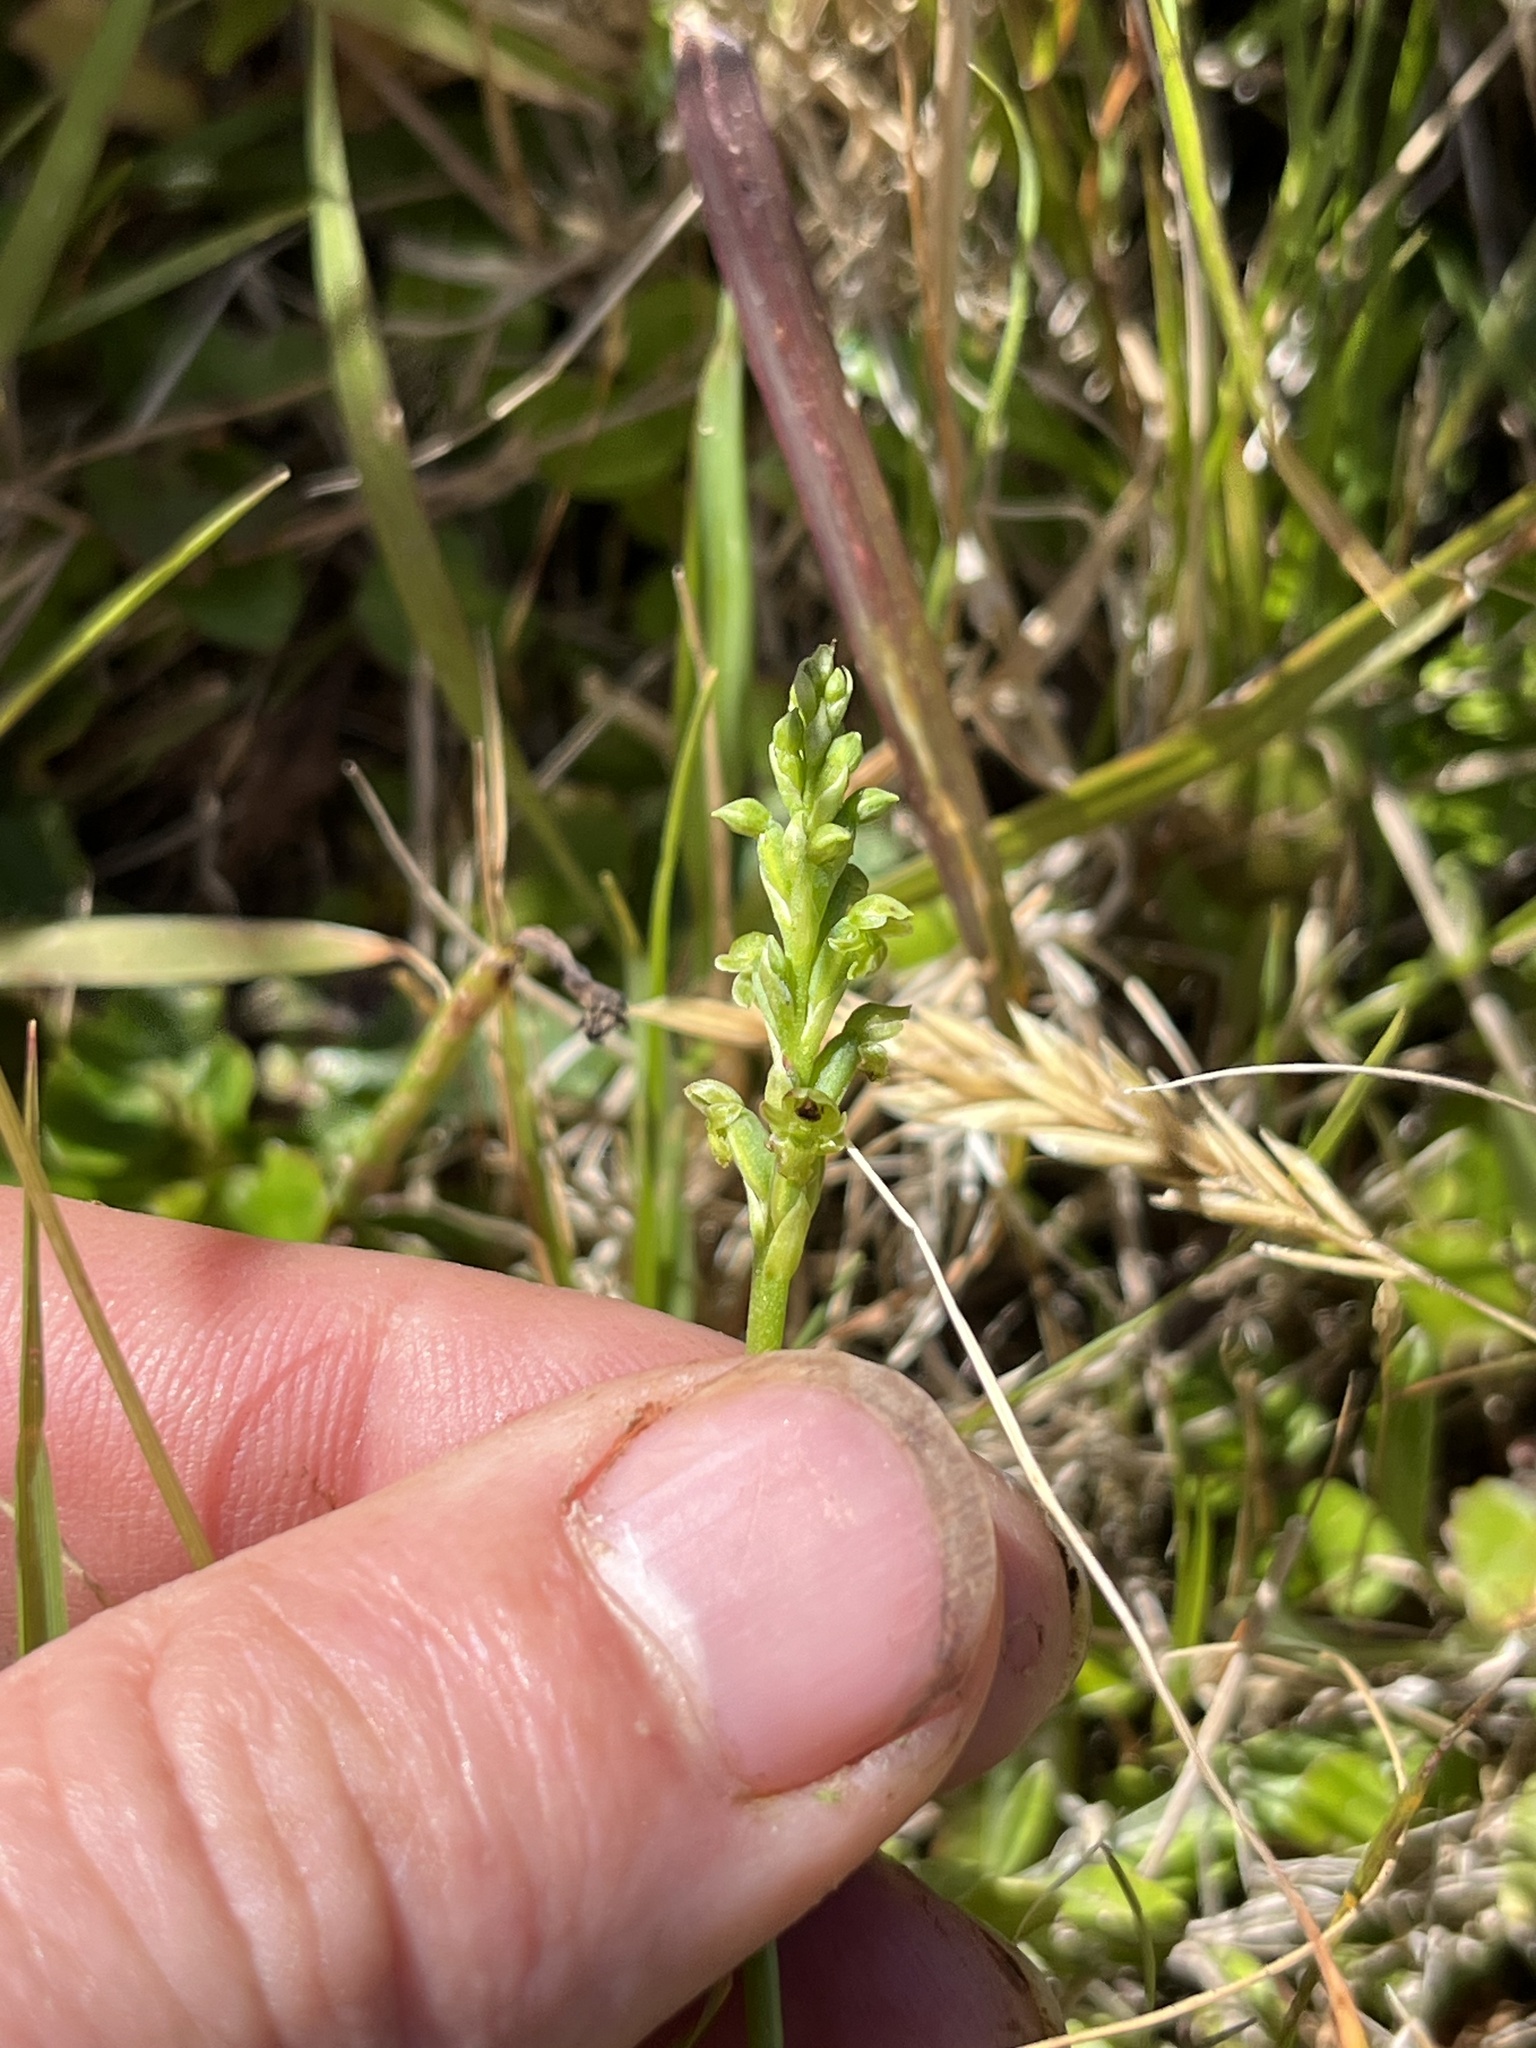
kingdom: Plantae
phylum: Tracheophyta
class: Liliopsida
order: Asparagales
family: Orchidaceae
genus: Microtis
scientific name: Microtis unifolia
